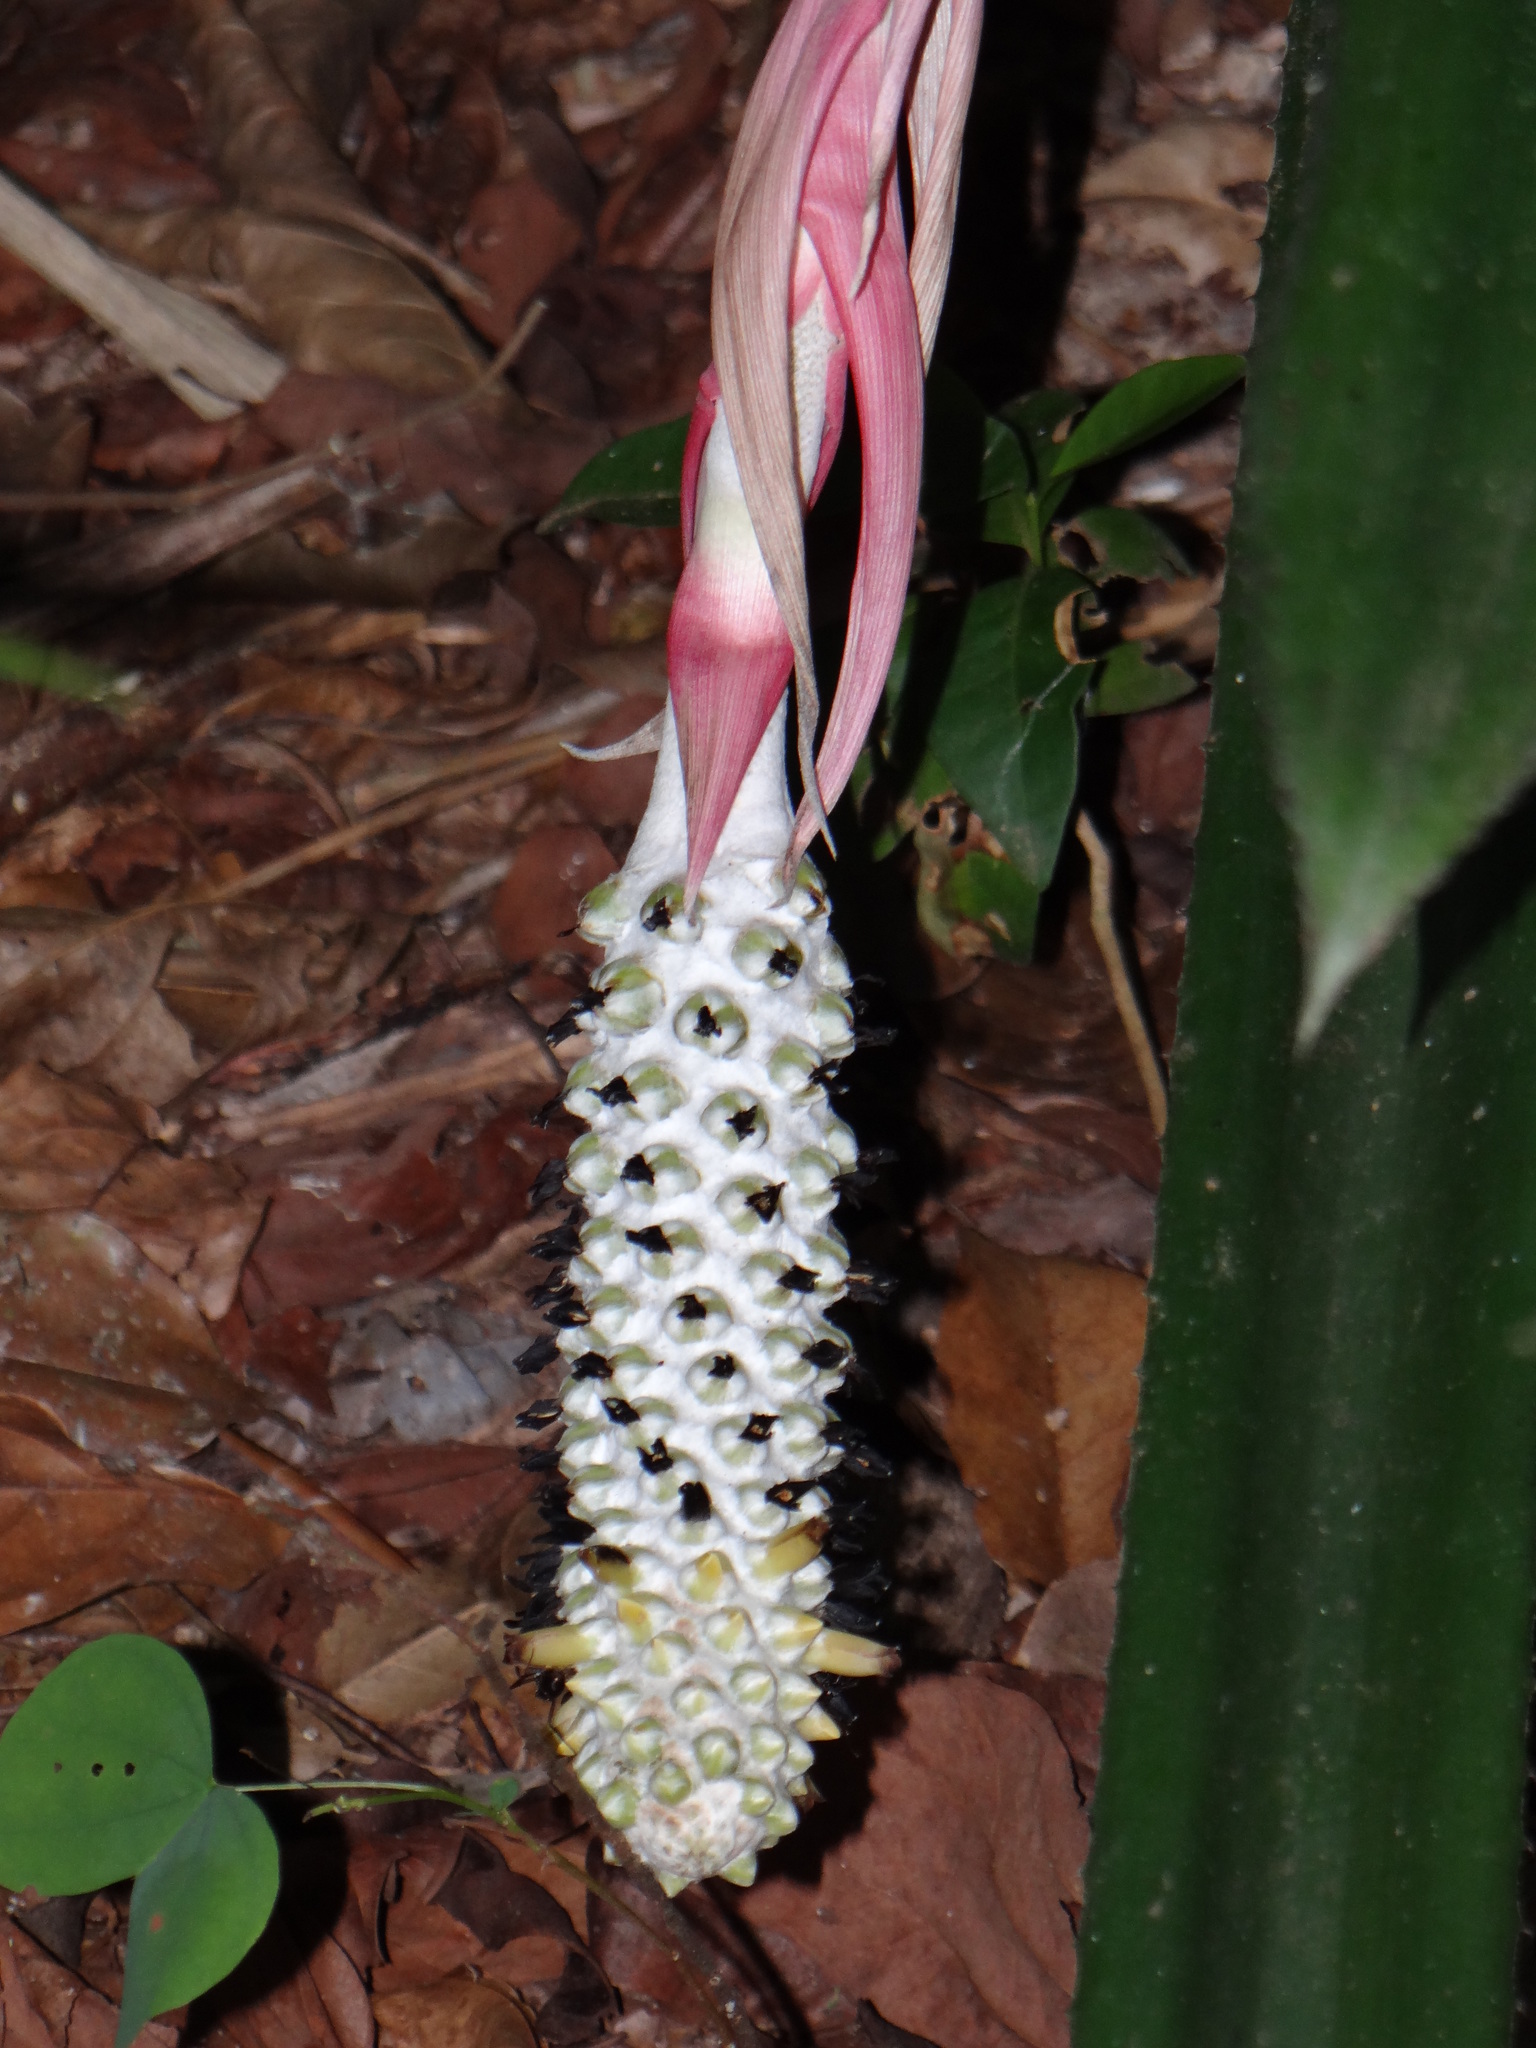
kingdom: Plantae
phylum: Tracheophyta
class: Liliopsida
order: Poales
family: Bromeliaceae
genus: Aechmea
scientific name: Aechmea bromeliifolia
